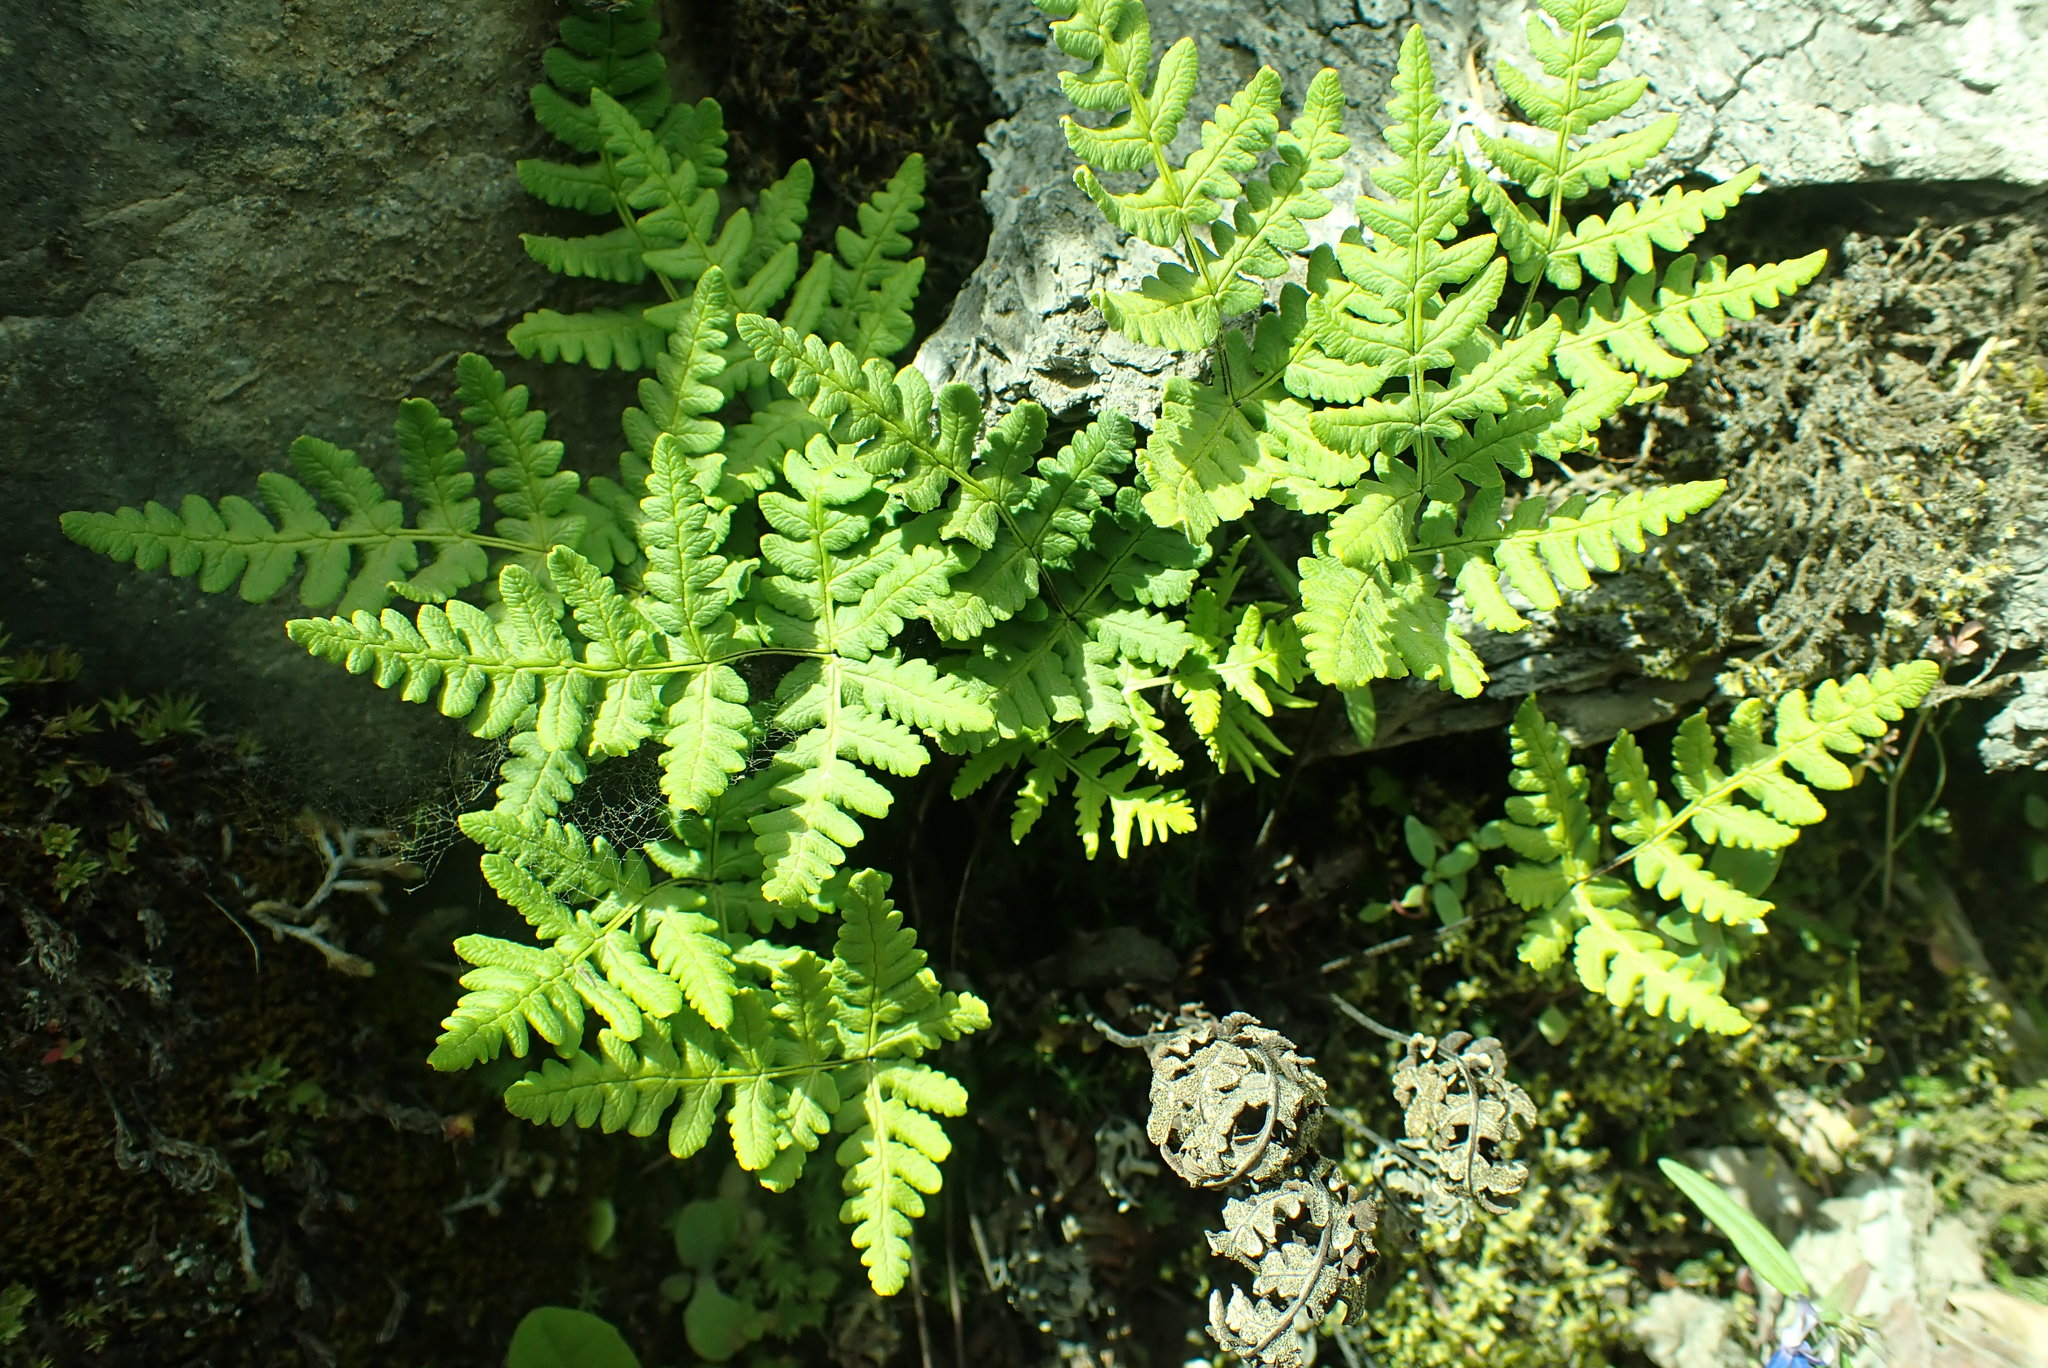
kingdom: Plantae
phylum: Tracheophyta
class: Polypodiopsida
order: Polypodiales
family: Pteridaceae
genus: Pentagramma
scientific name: Pentagramma triangularis
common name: Gold fern
